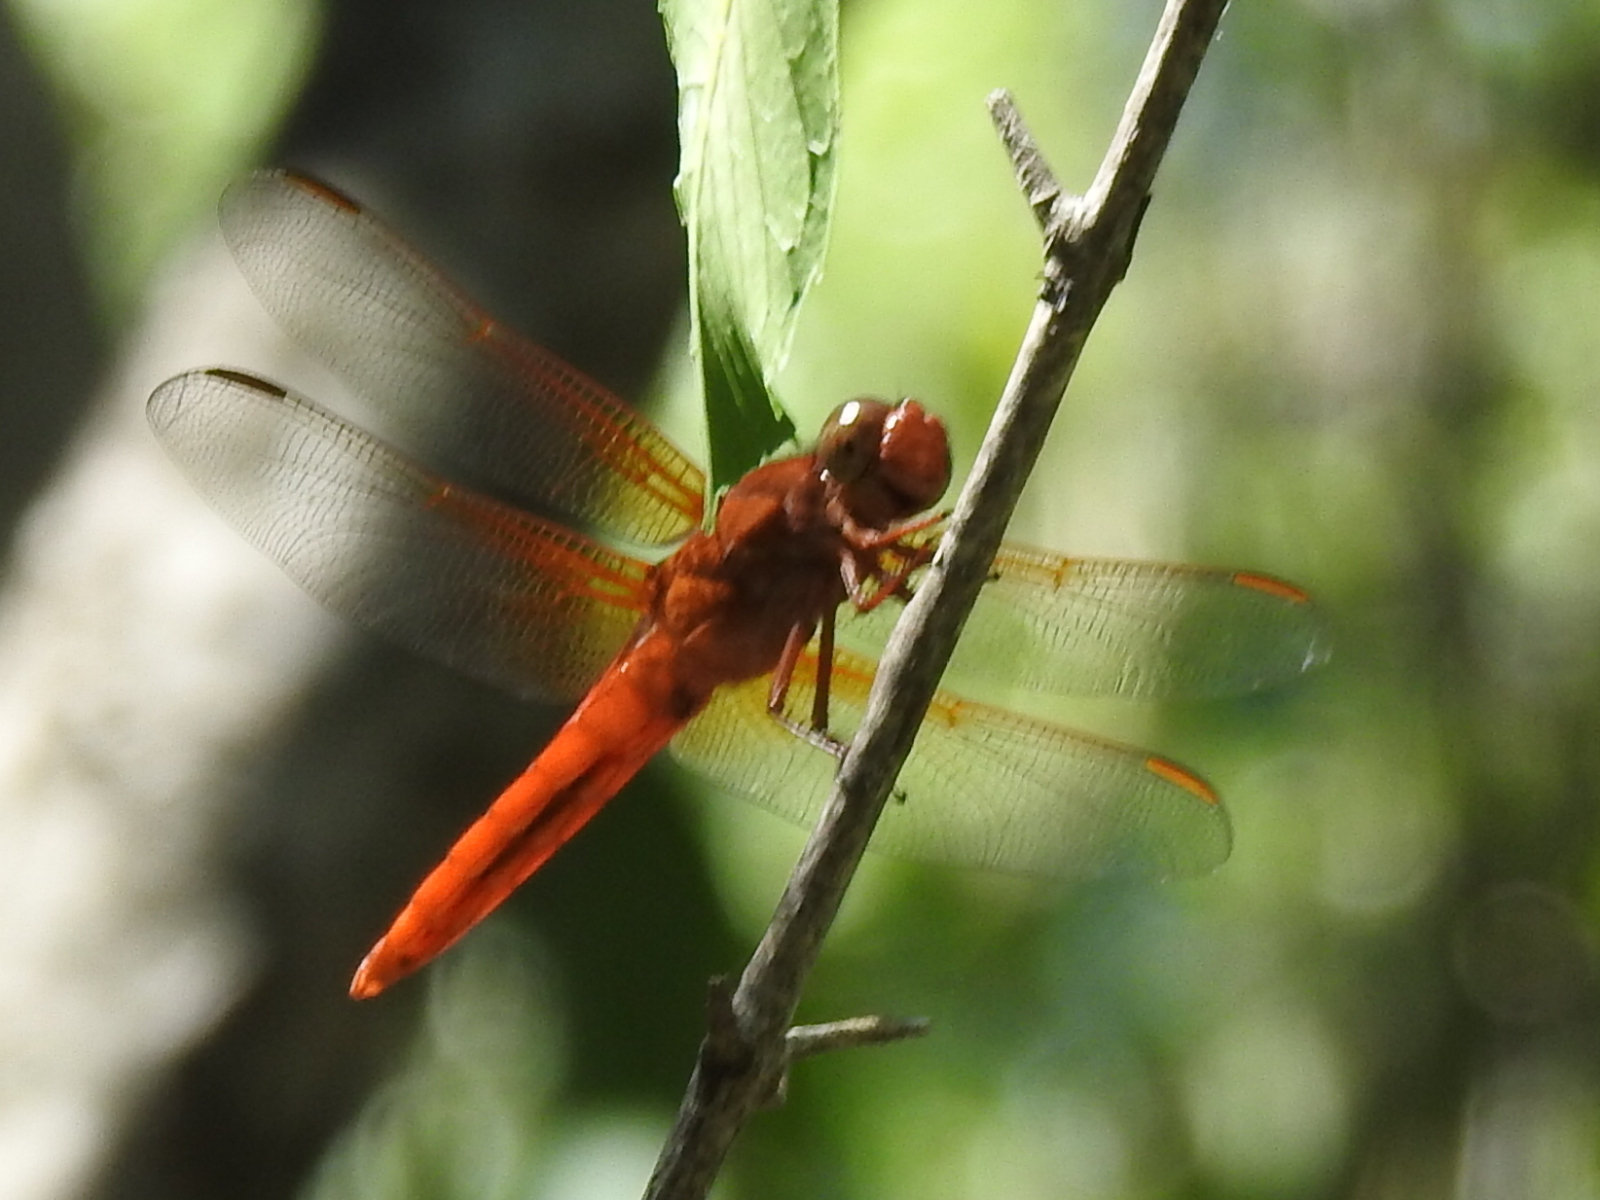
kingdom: Animalia
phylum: Arthropoda
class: Insecta
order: Odonata
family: Libellulidae
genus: Libellula
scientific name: Libellula croceipennis
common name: Neon skimmer
